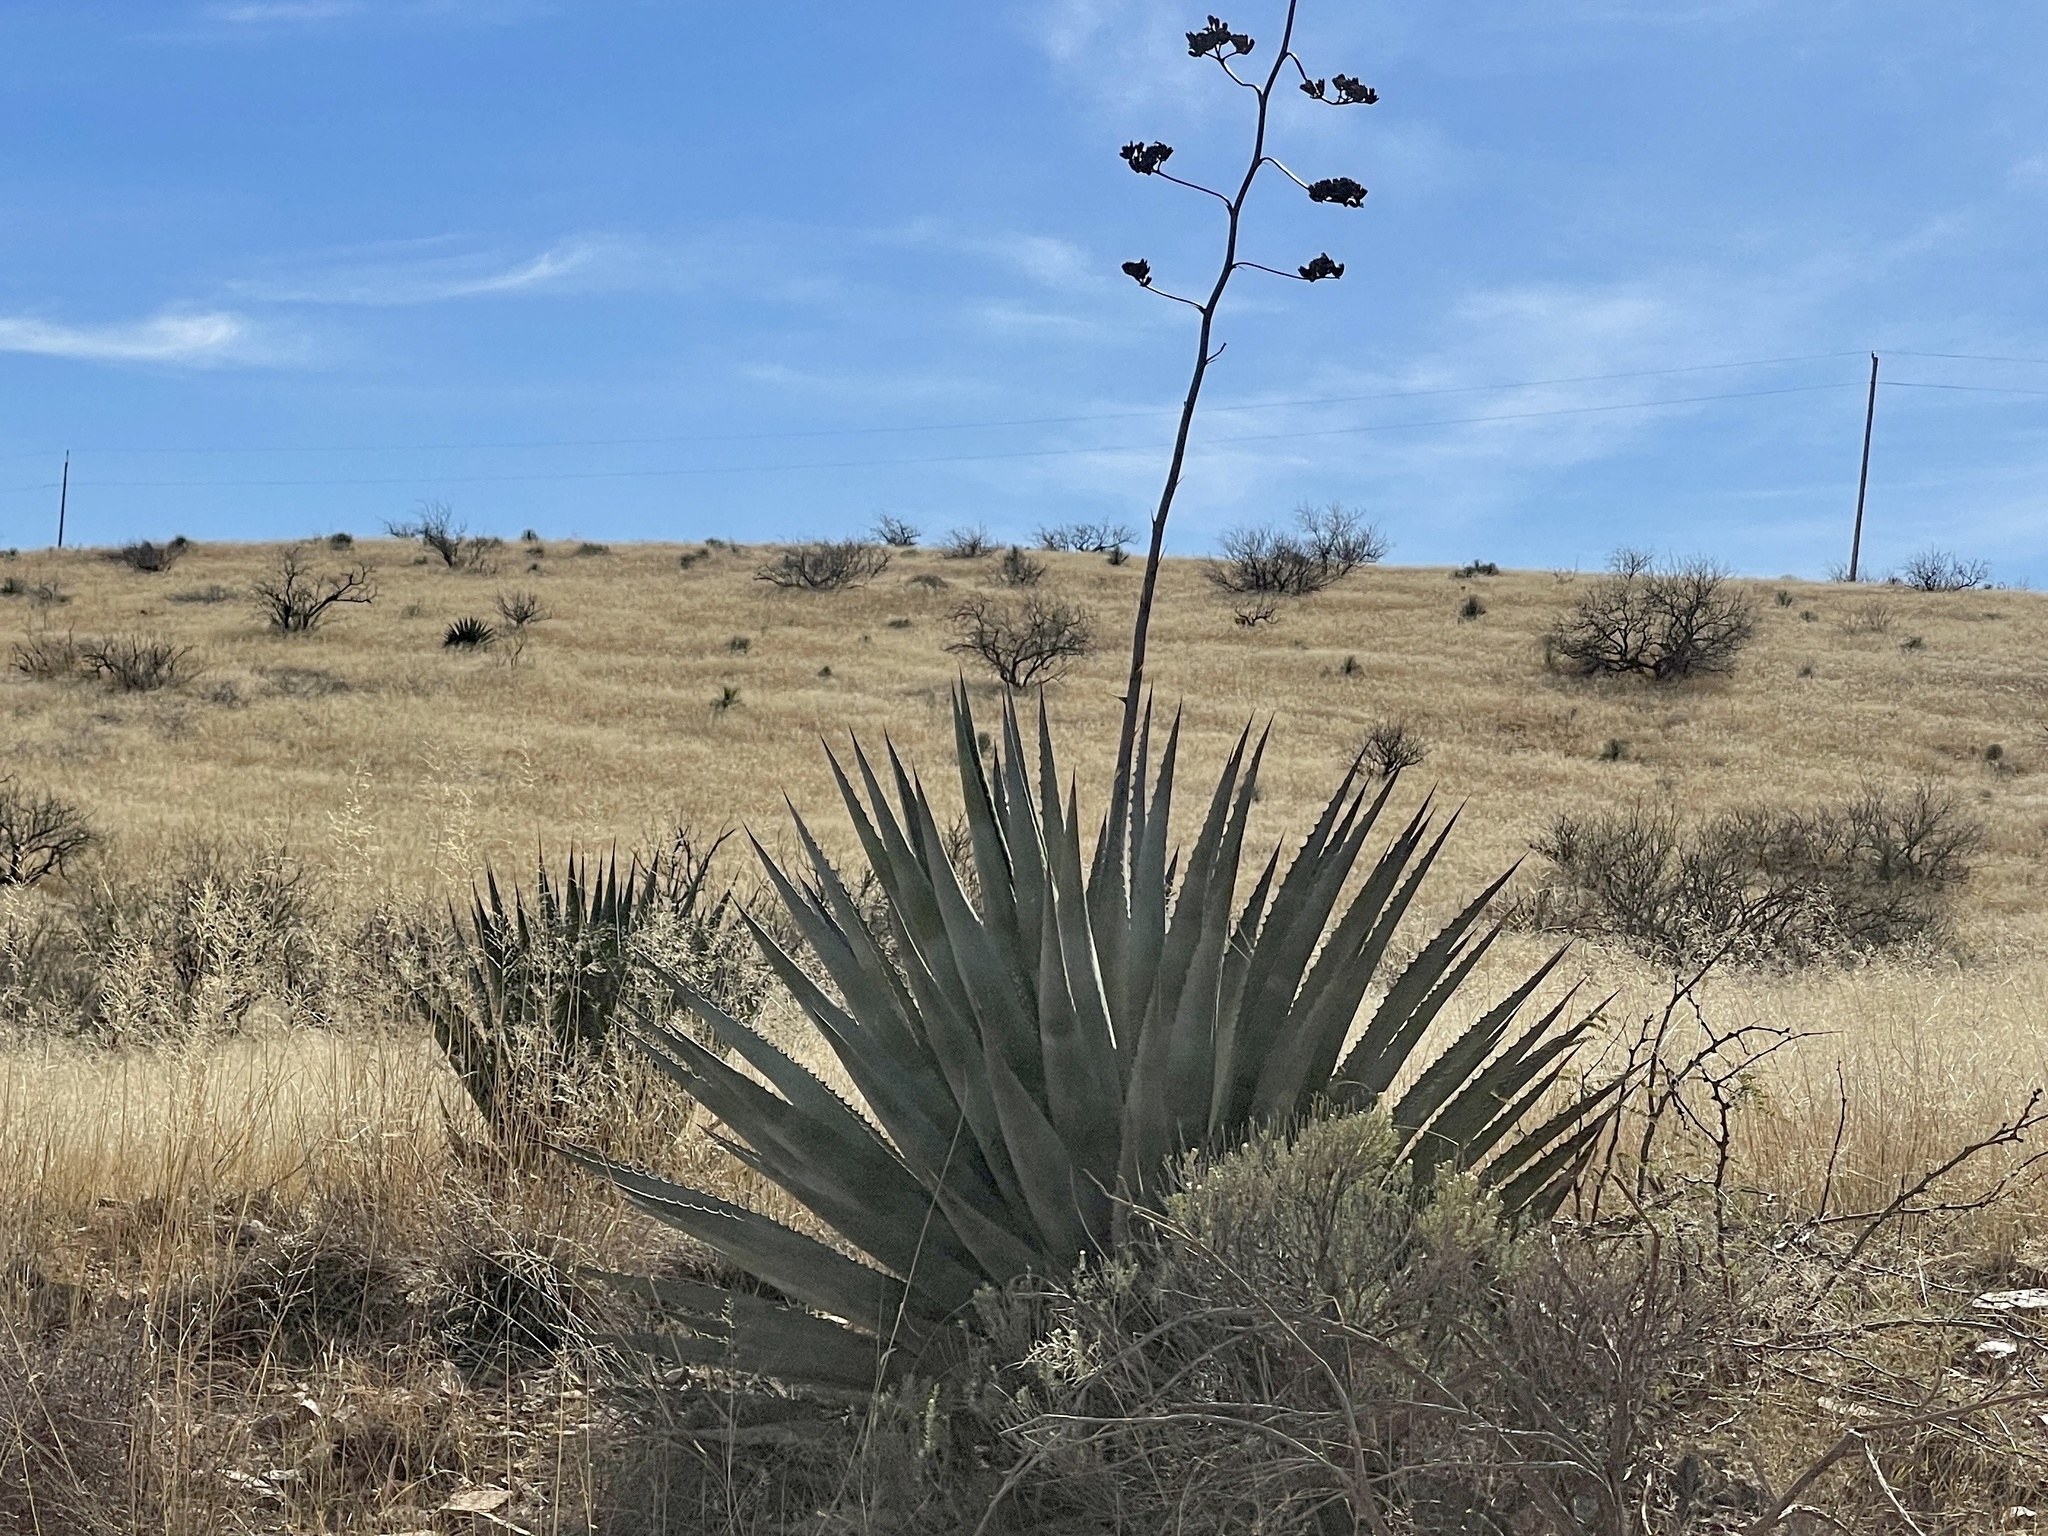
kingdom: Plantae
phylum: Tracheophyta
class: Liliopsida
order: Asparagales
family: Asparagaceae
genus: Agave
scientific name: Agave palmeri
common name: Palmer agave
